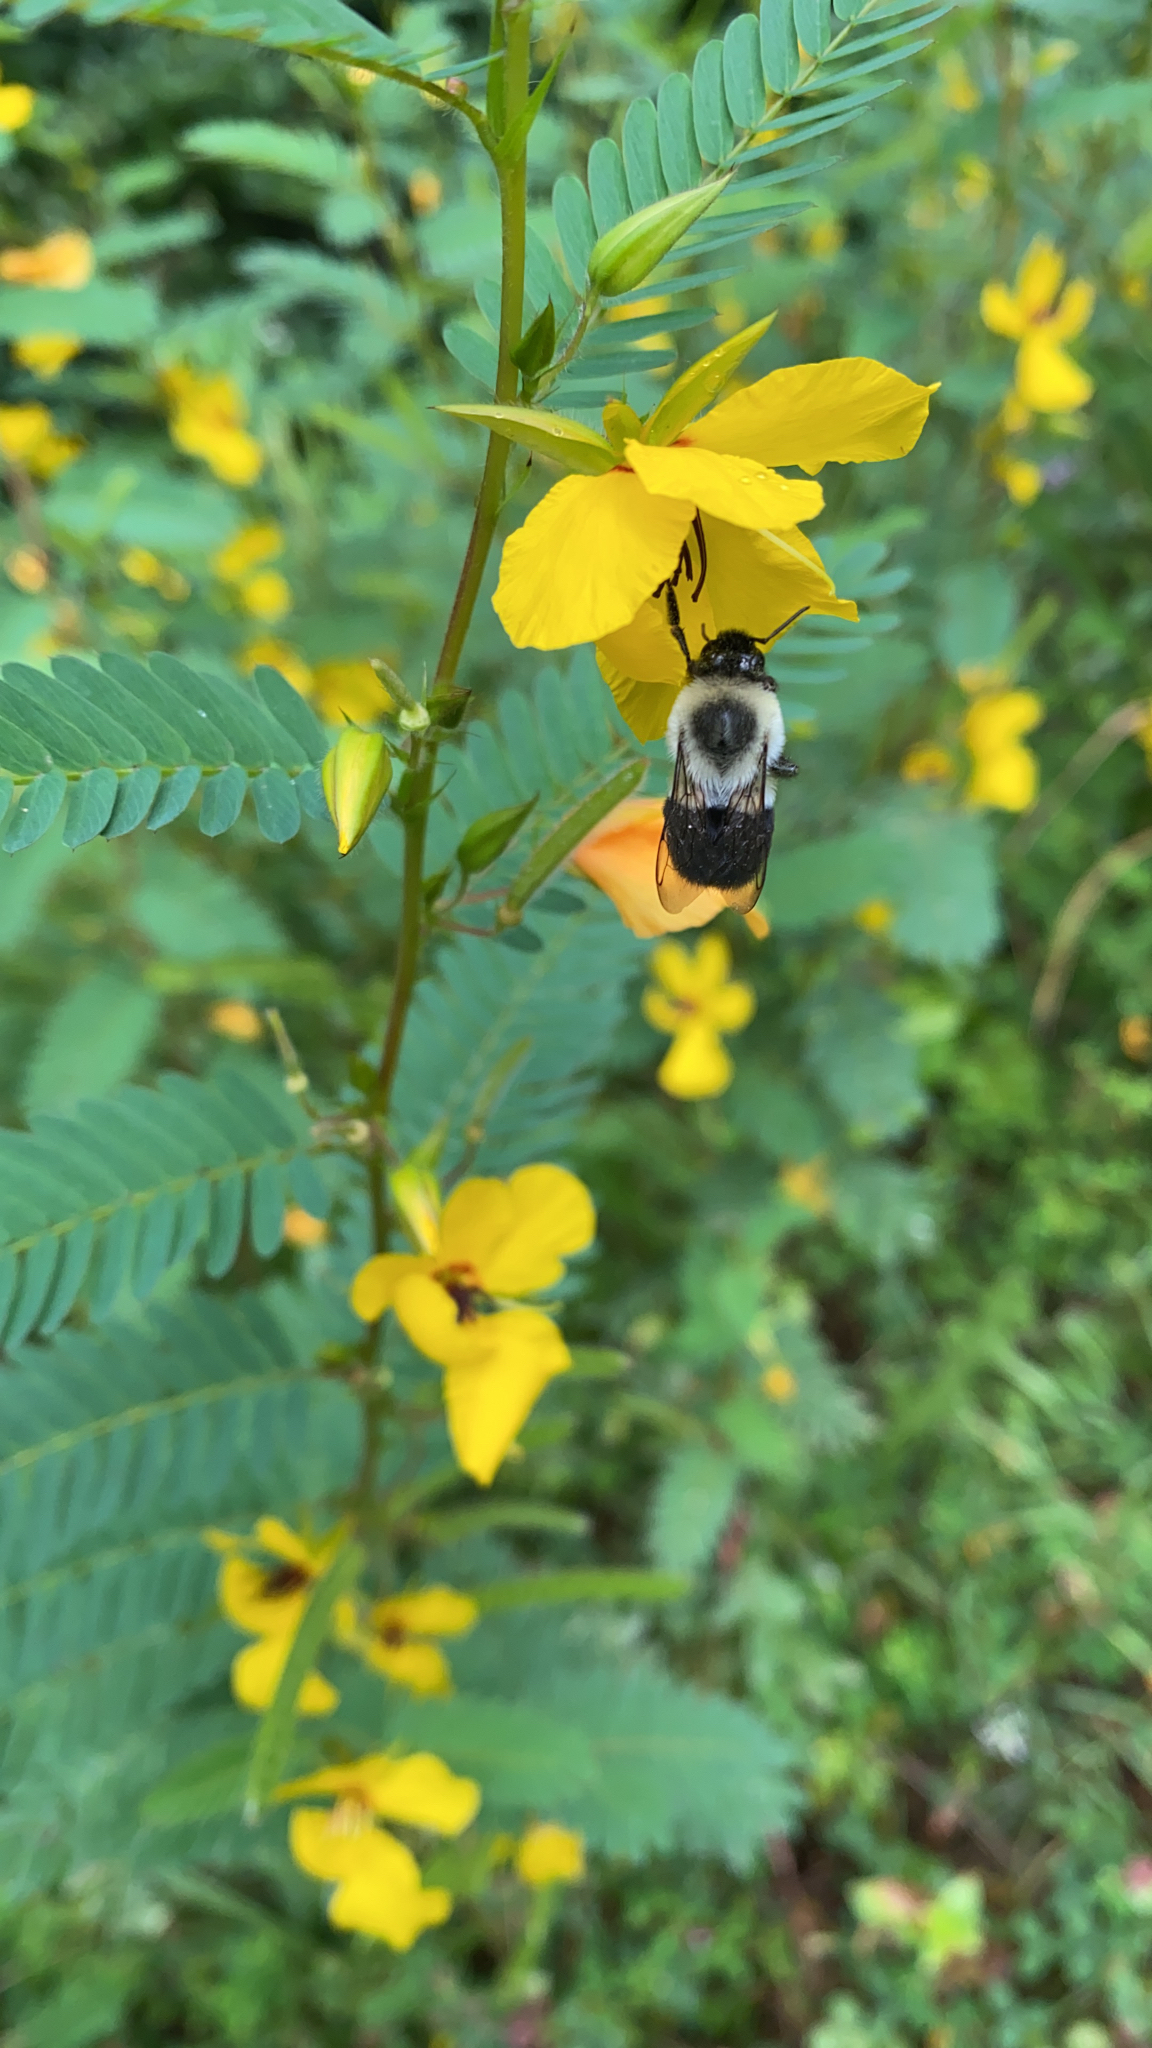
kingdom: Animalia
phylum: Arthropoda
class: Insecta
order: Hymenoptera
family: Apidae
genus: Bombus
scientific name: Bombus impatiens
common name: Common eastern bumble bee
